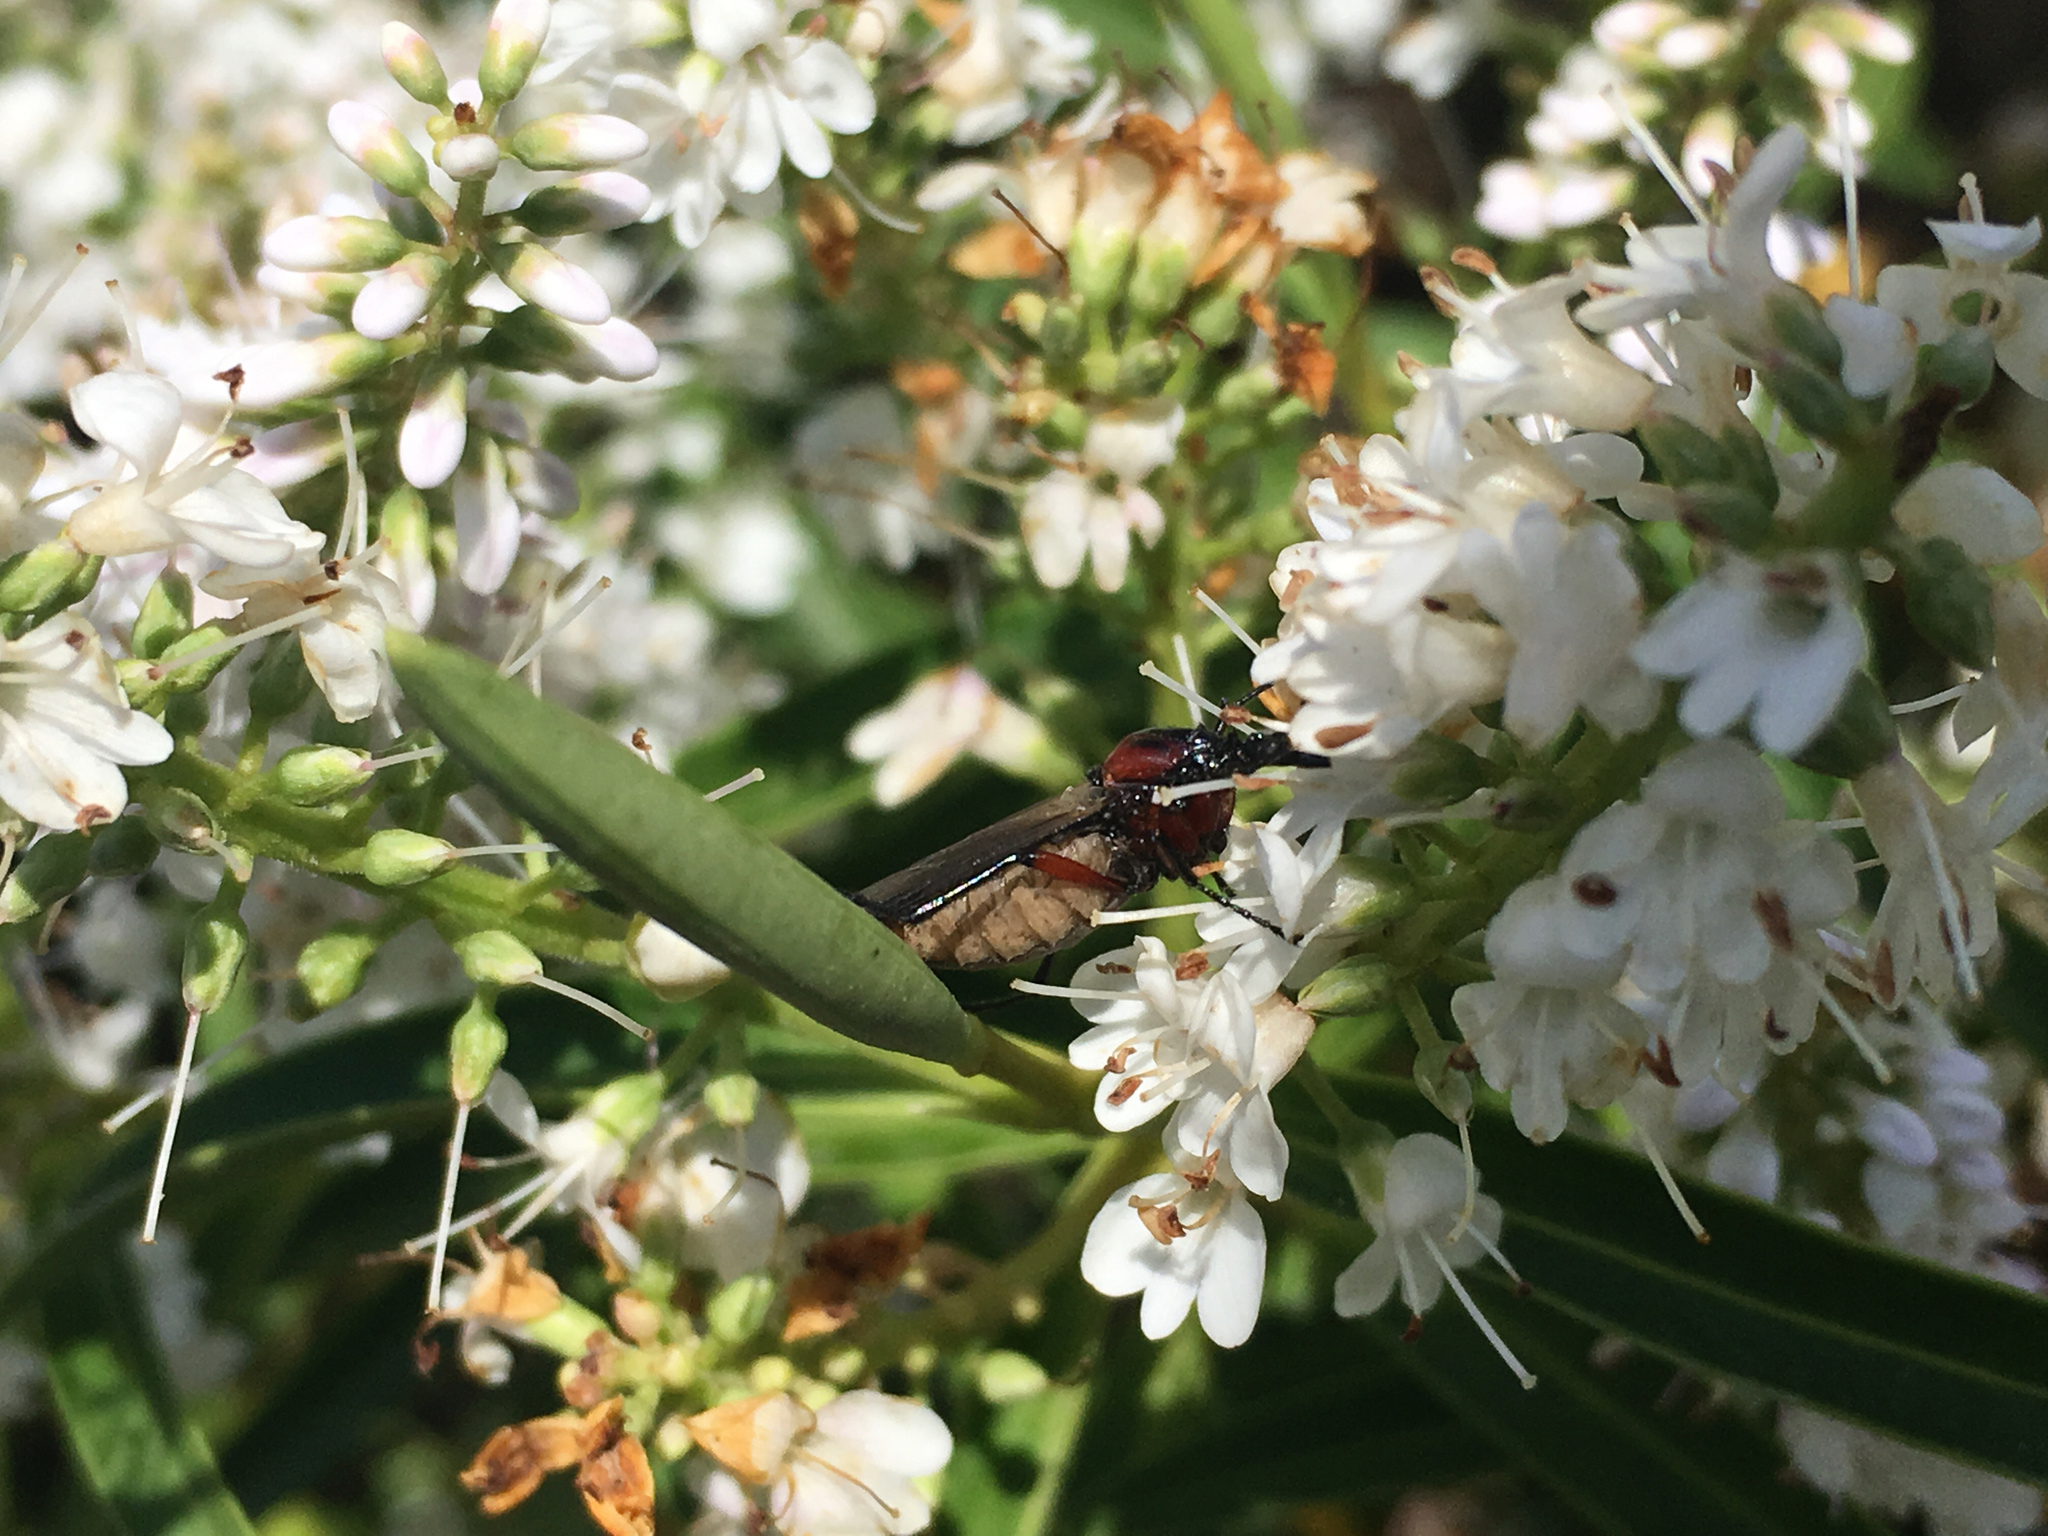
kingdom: Animalia
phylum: Arthropoda
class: Insecta
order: Diptera
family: Bibionidae
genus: Dilophus
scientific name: Dilophus nigrostigma
